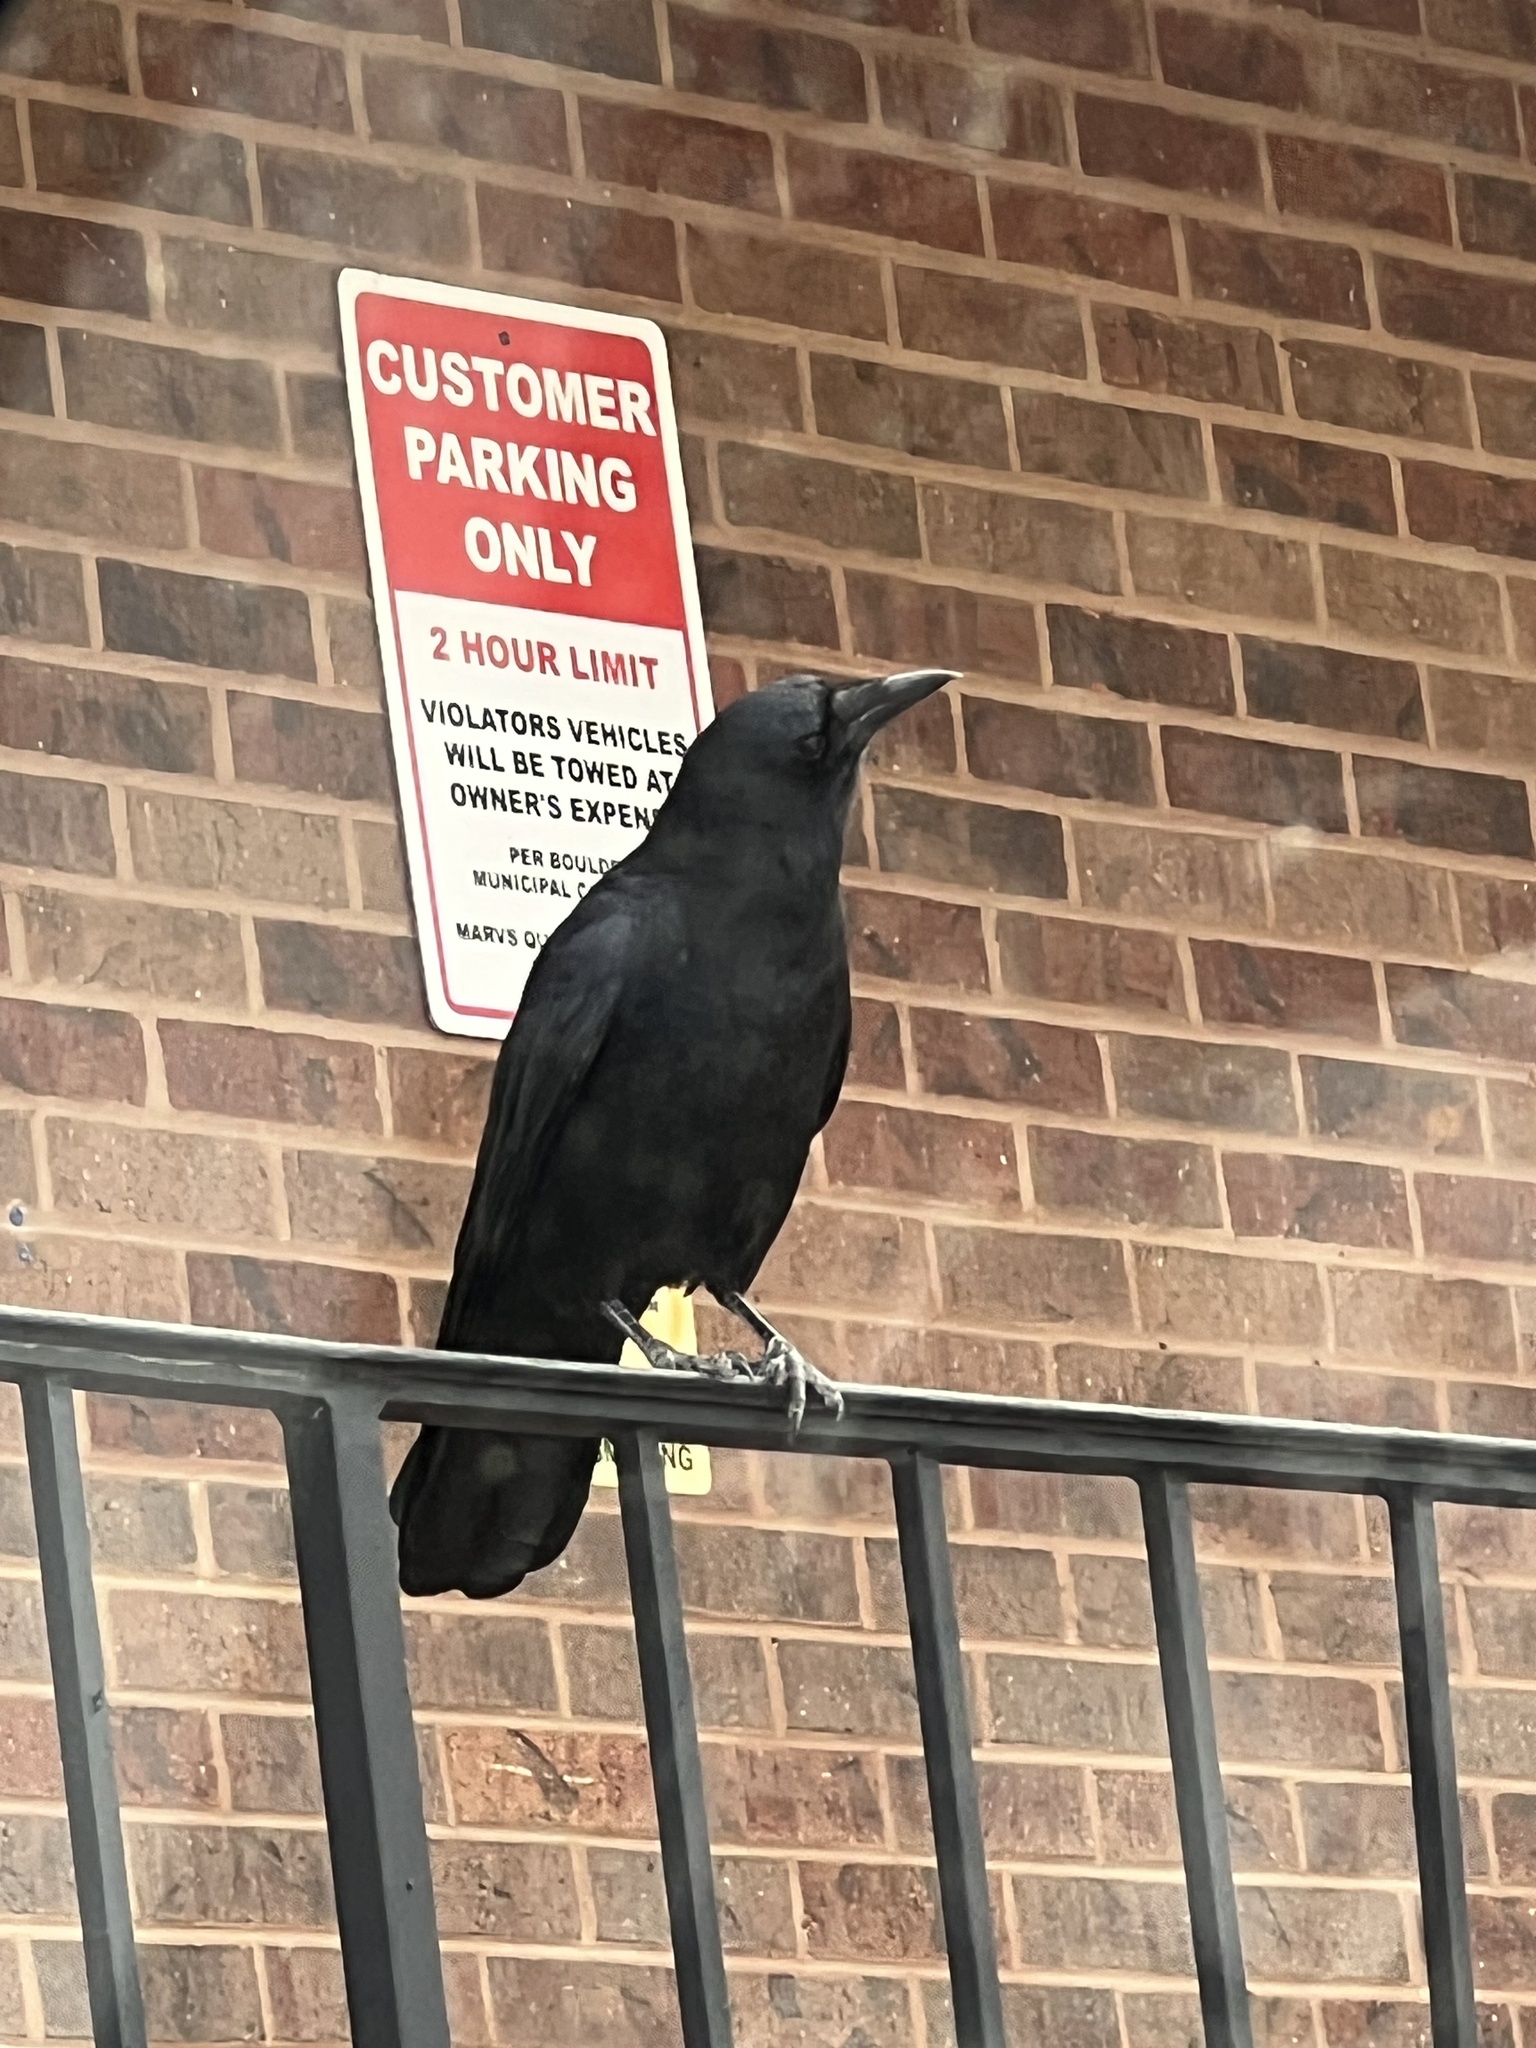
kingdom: Animalia
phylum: Chordata
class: Aves
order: Passeriformes
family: Corvidae
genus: Corvus
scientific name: Corvus brachyrhynchos
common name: American crow
